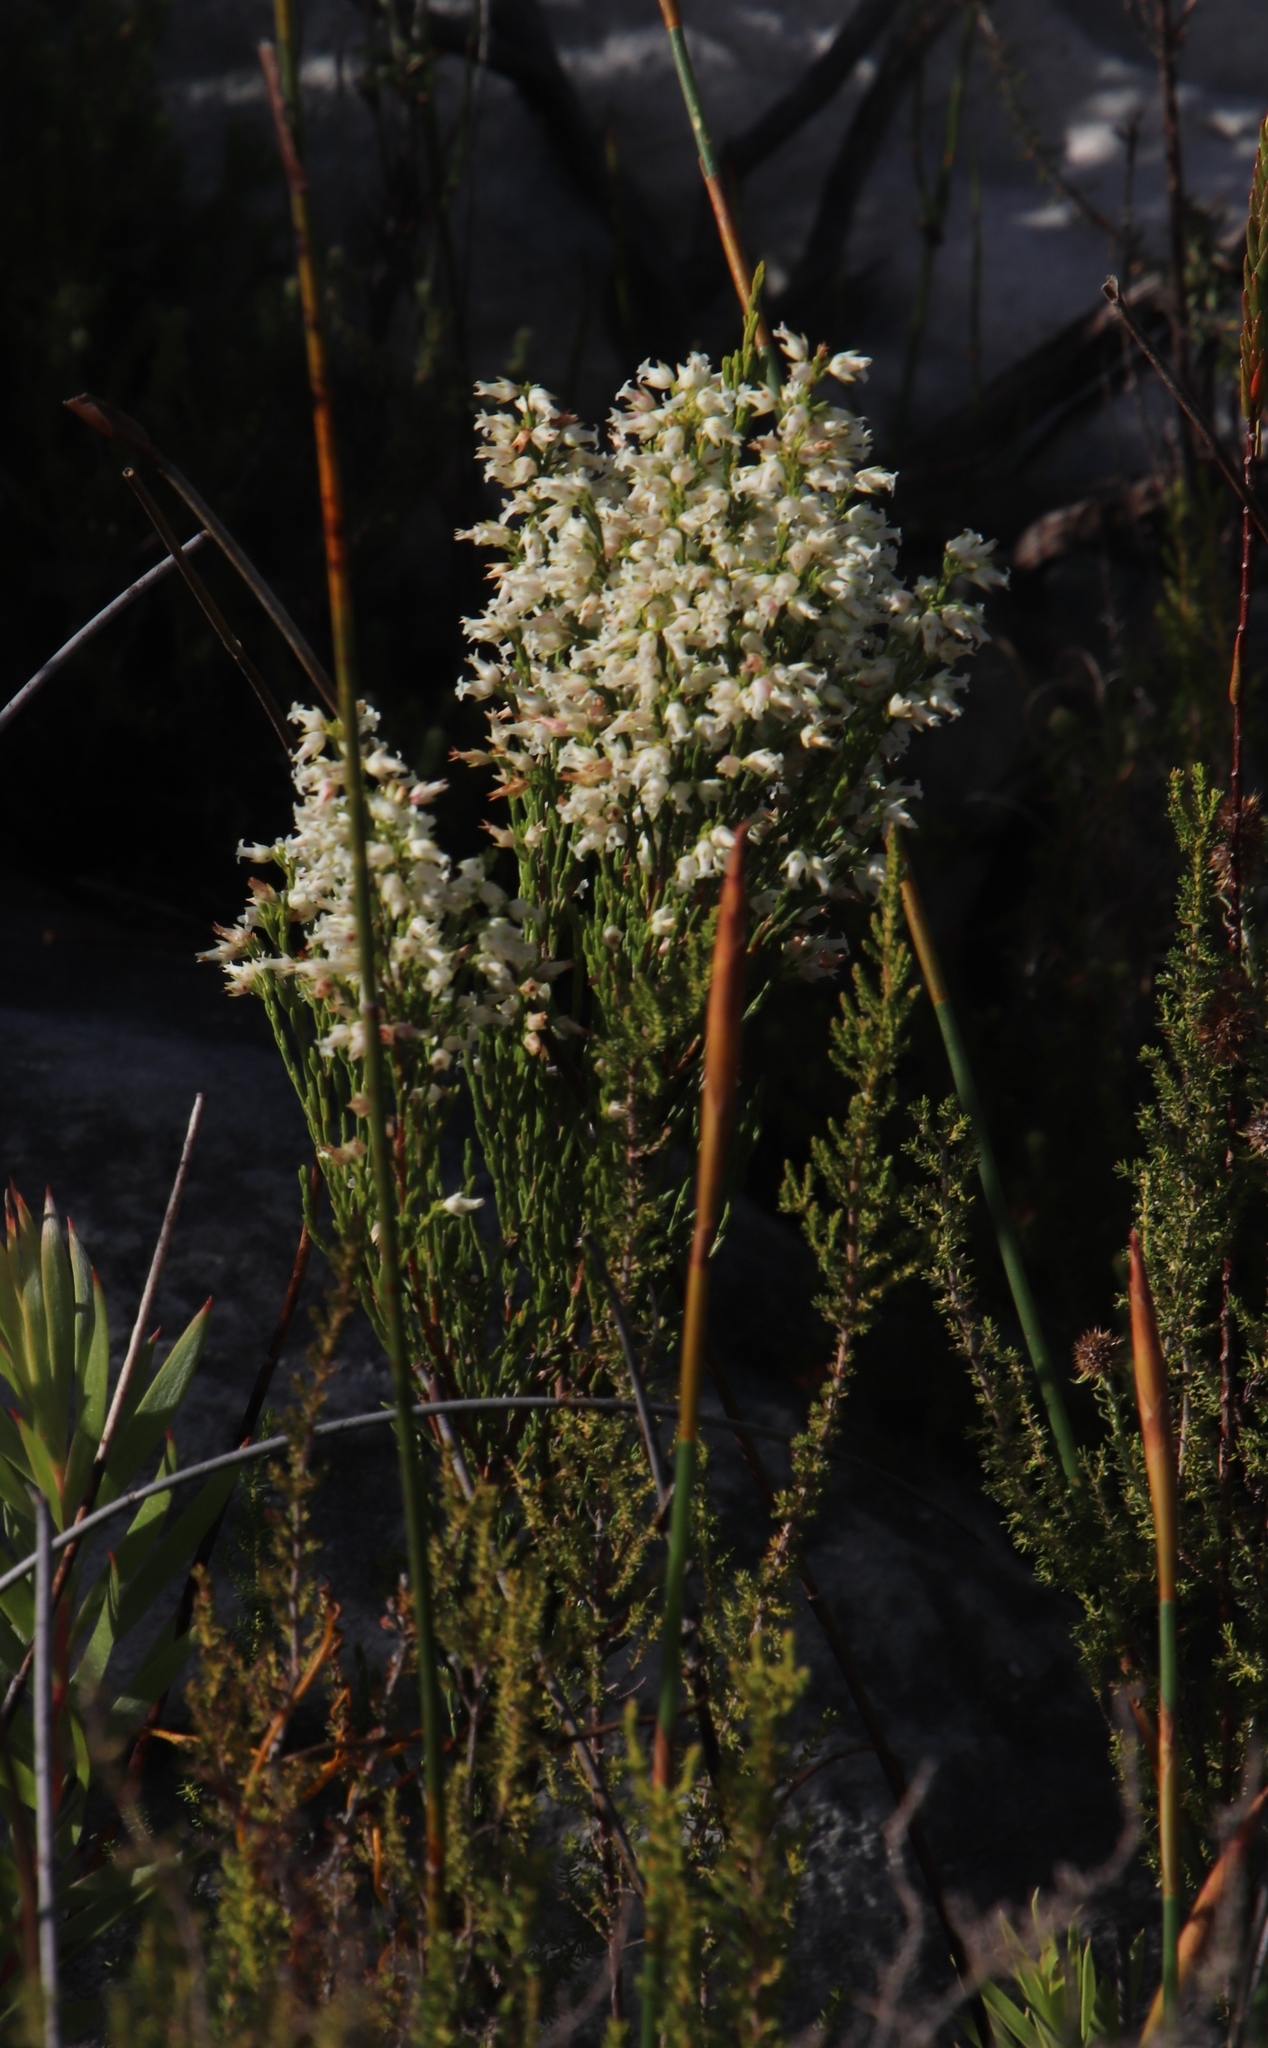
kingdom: Plantae
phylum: Tracheophyta
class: Magnoliopsida
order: Ericales
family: Ericaceae
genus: Erica
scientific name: Erica lutea
